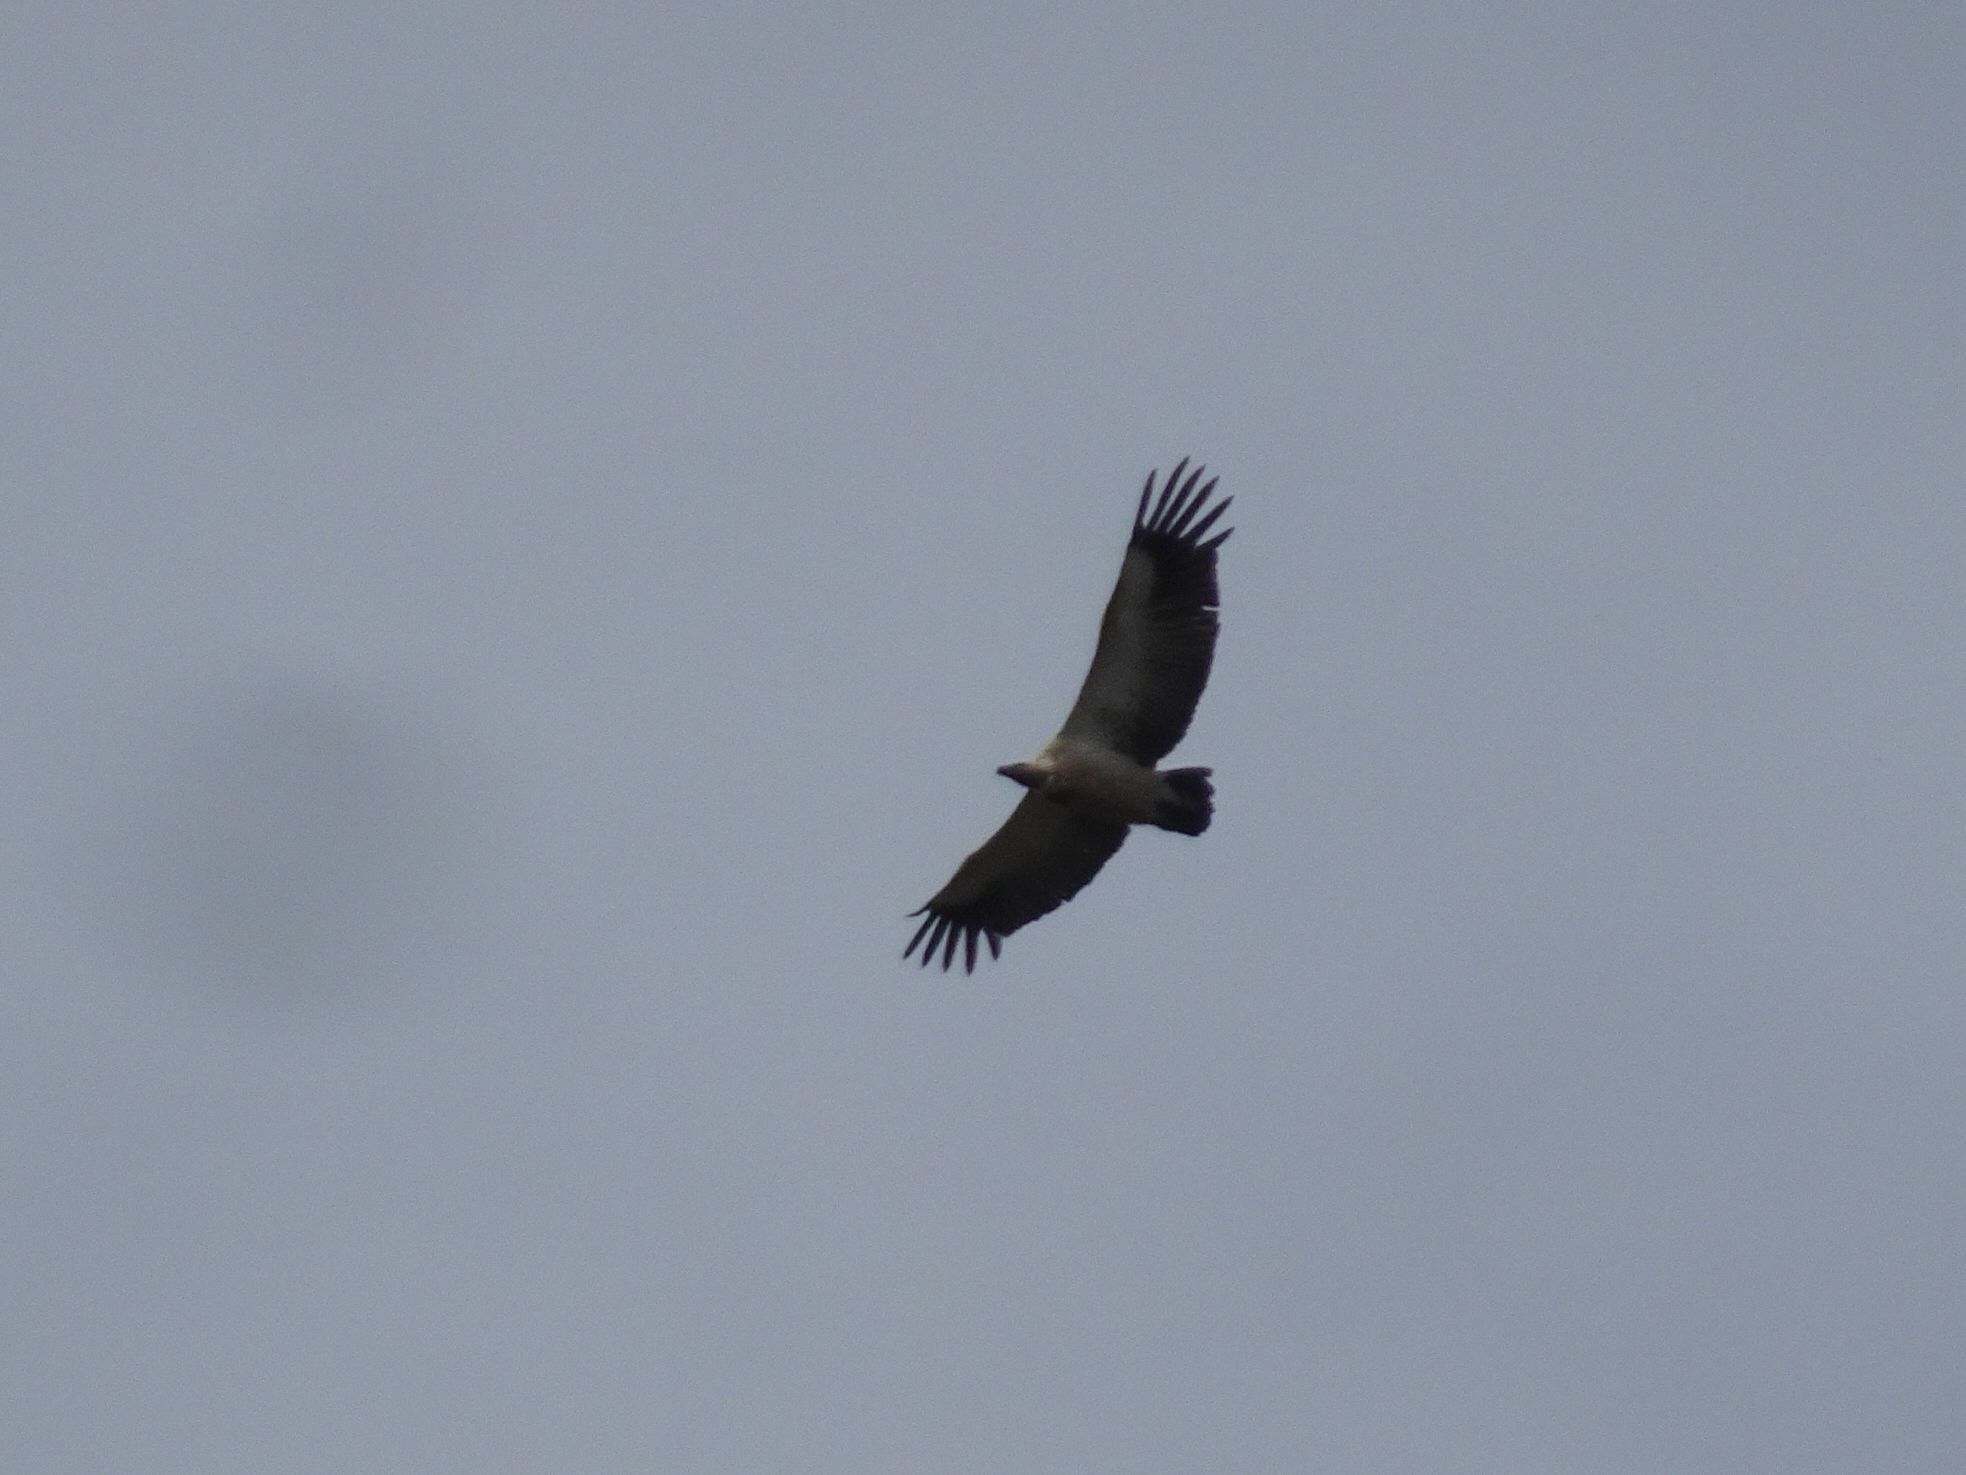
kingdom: Animalia
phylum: Chordata
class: Aves
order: Accipitriformes
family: Accipitridae
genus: Gyps
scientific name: Gyps coprotheres
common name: Cape vulture
